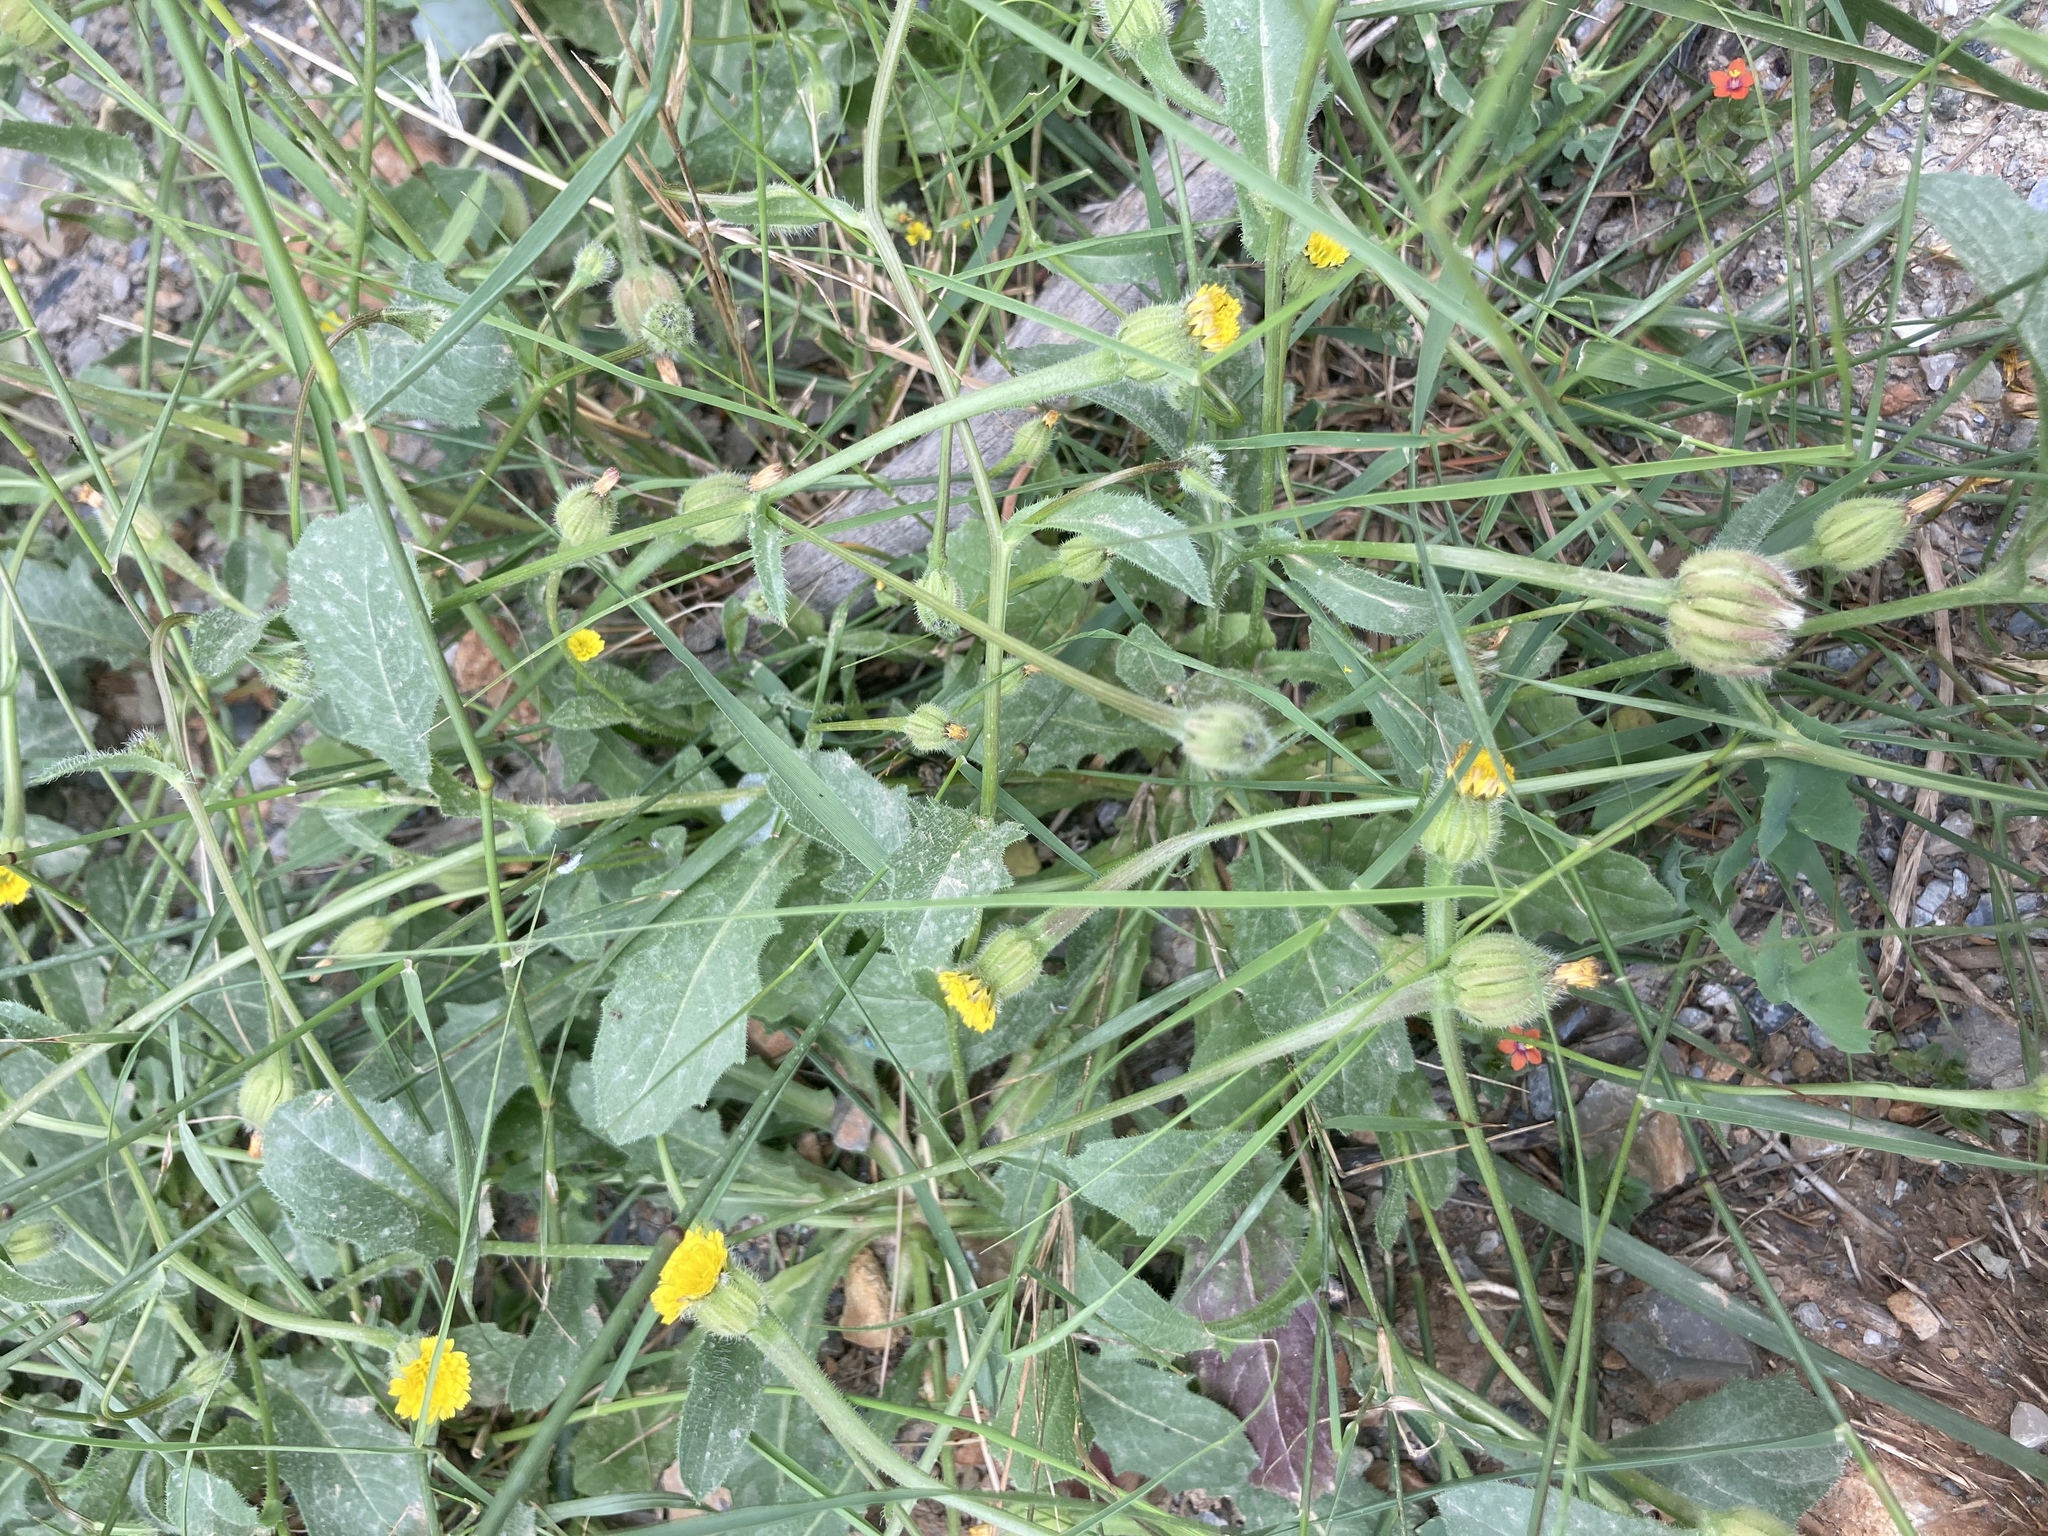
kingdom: Plantae
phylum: Tracheophyta
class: Magnoliopsida
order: Asterales
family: Asteraceae
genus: Hedypnois
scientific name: Hedypnois rhagadioloides
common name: Cretan weed
